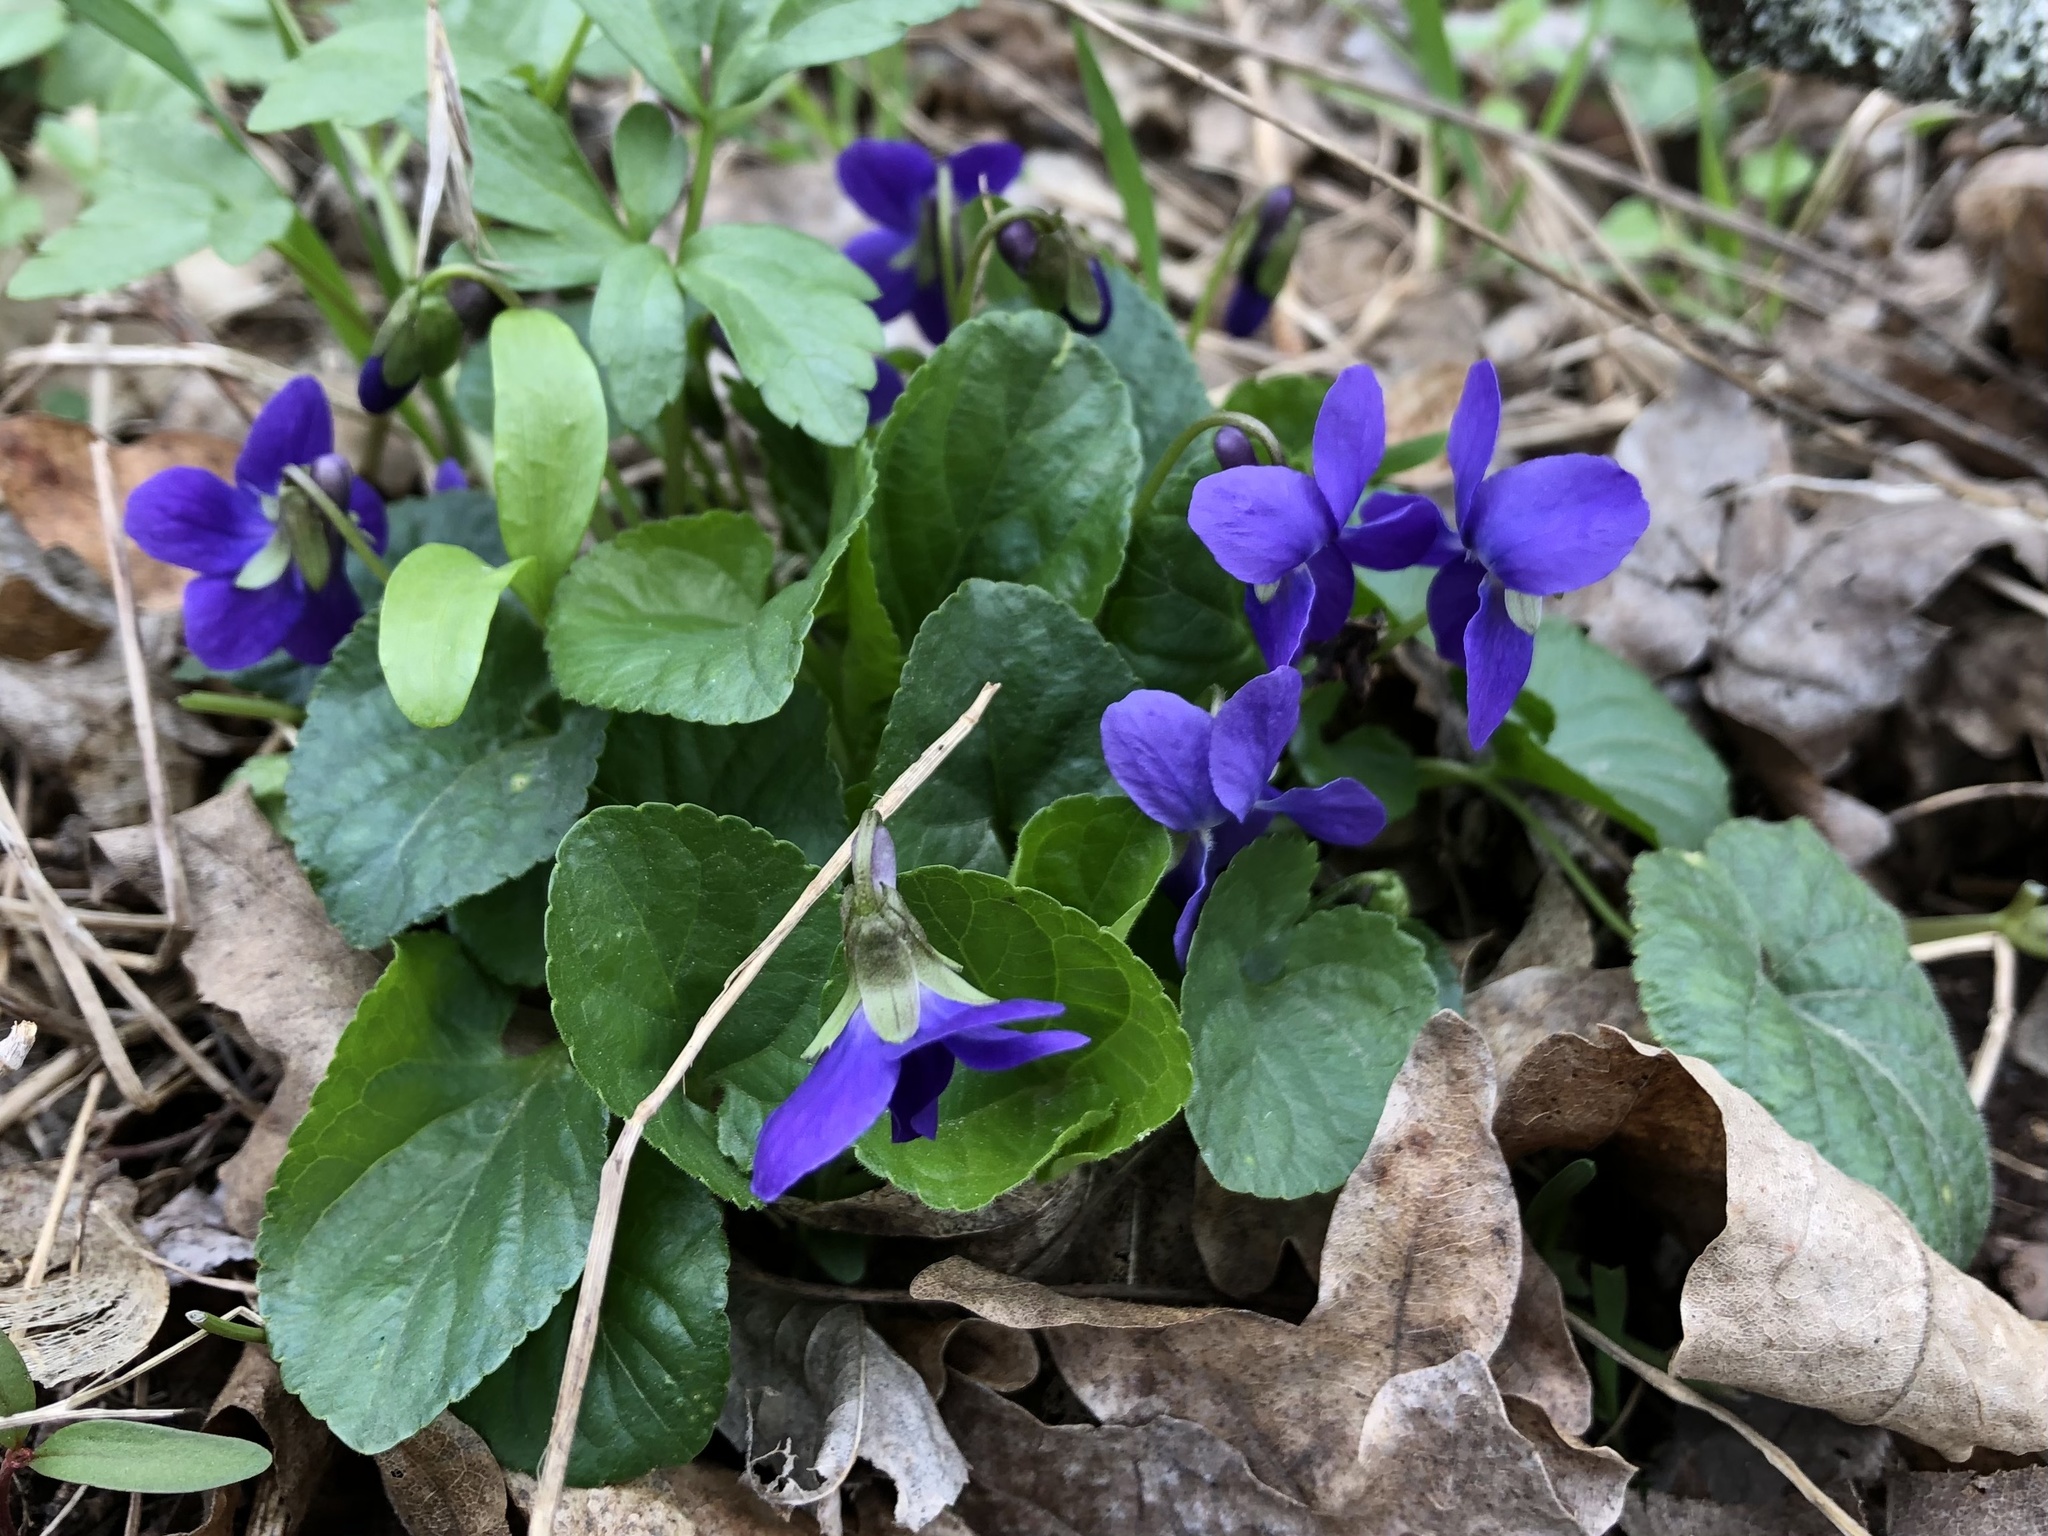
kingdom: Plantae
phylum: Tracheophyta
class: Magnoliopsida
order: Malpighiales
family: Violaceae
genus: Viola
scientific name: Viola odorata
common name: Sweet violet
